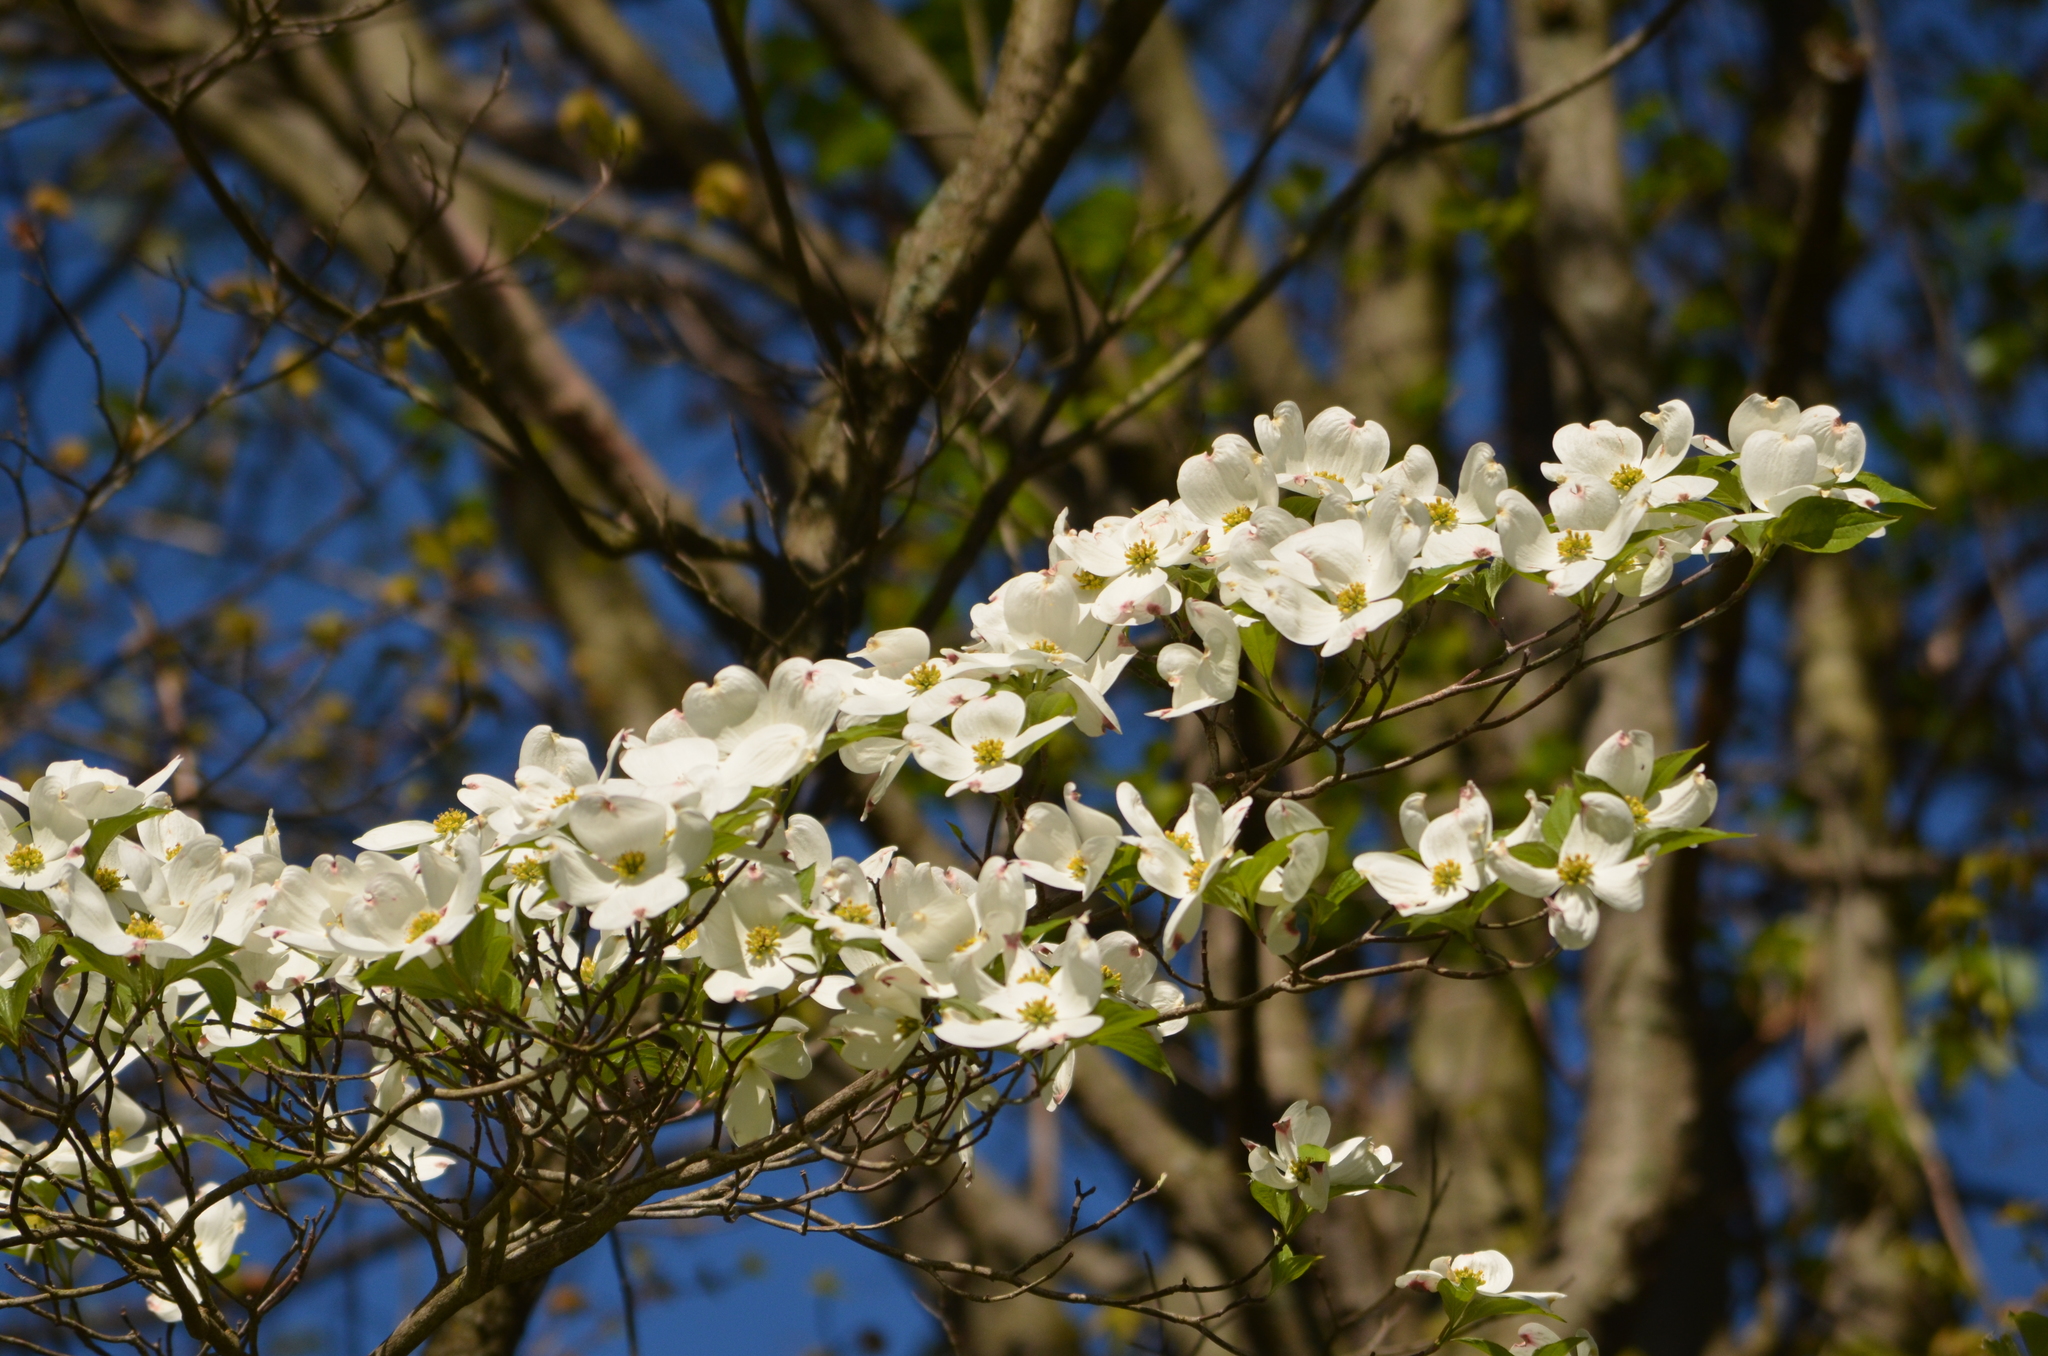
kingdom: Plantae
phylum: Tracheophyta
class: Magnoliopsida
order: Cornales
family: Cornaceae
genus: Cornus
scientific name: Cornus florida
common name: Flowering dogwood
